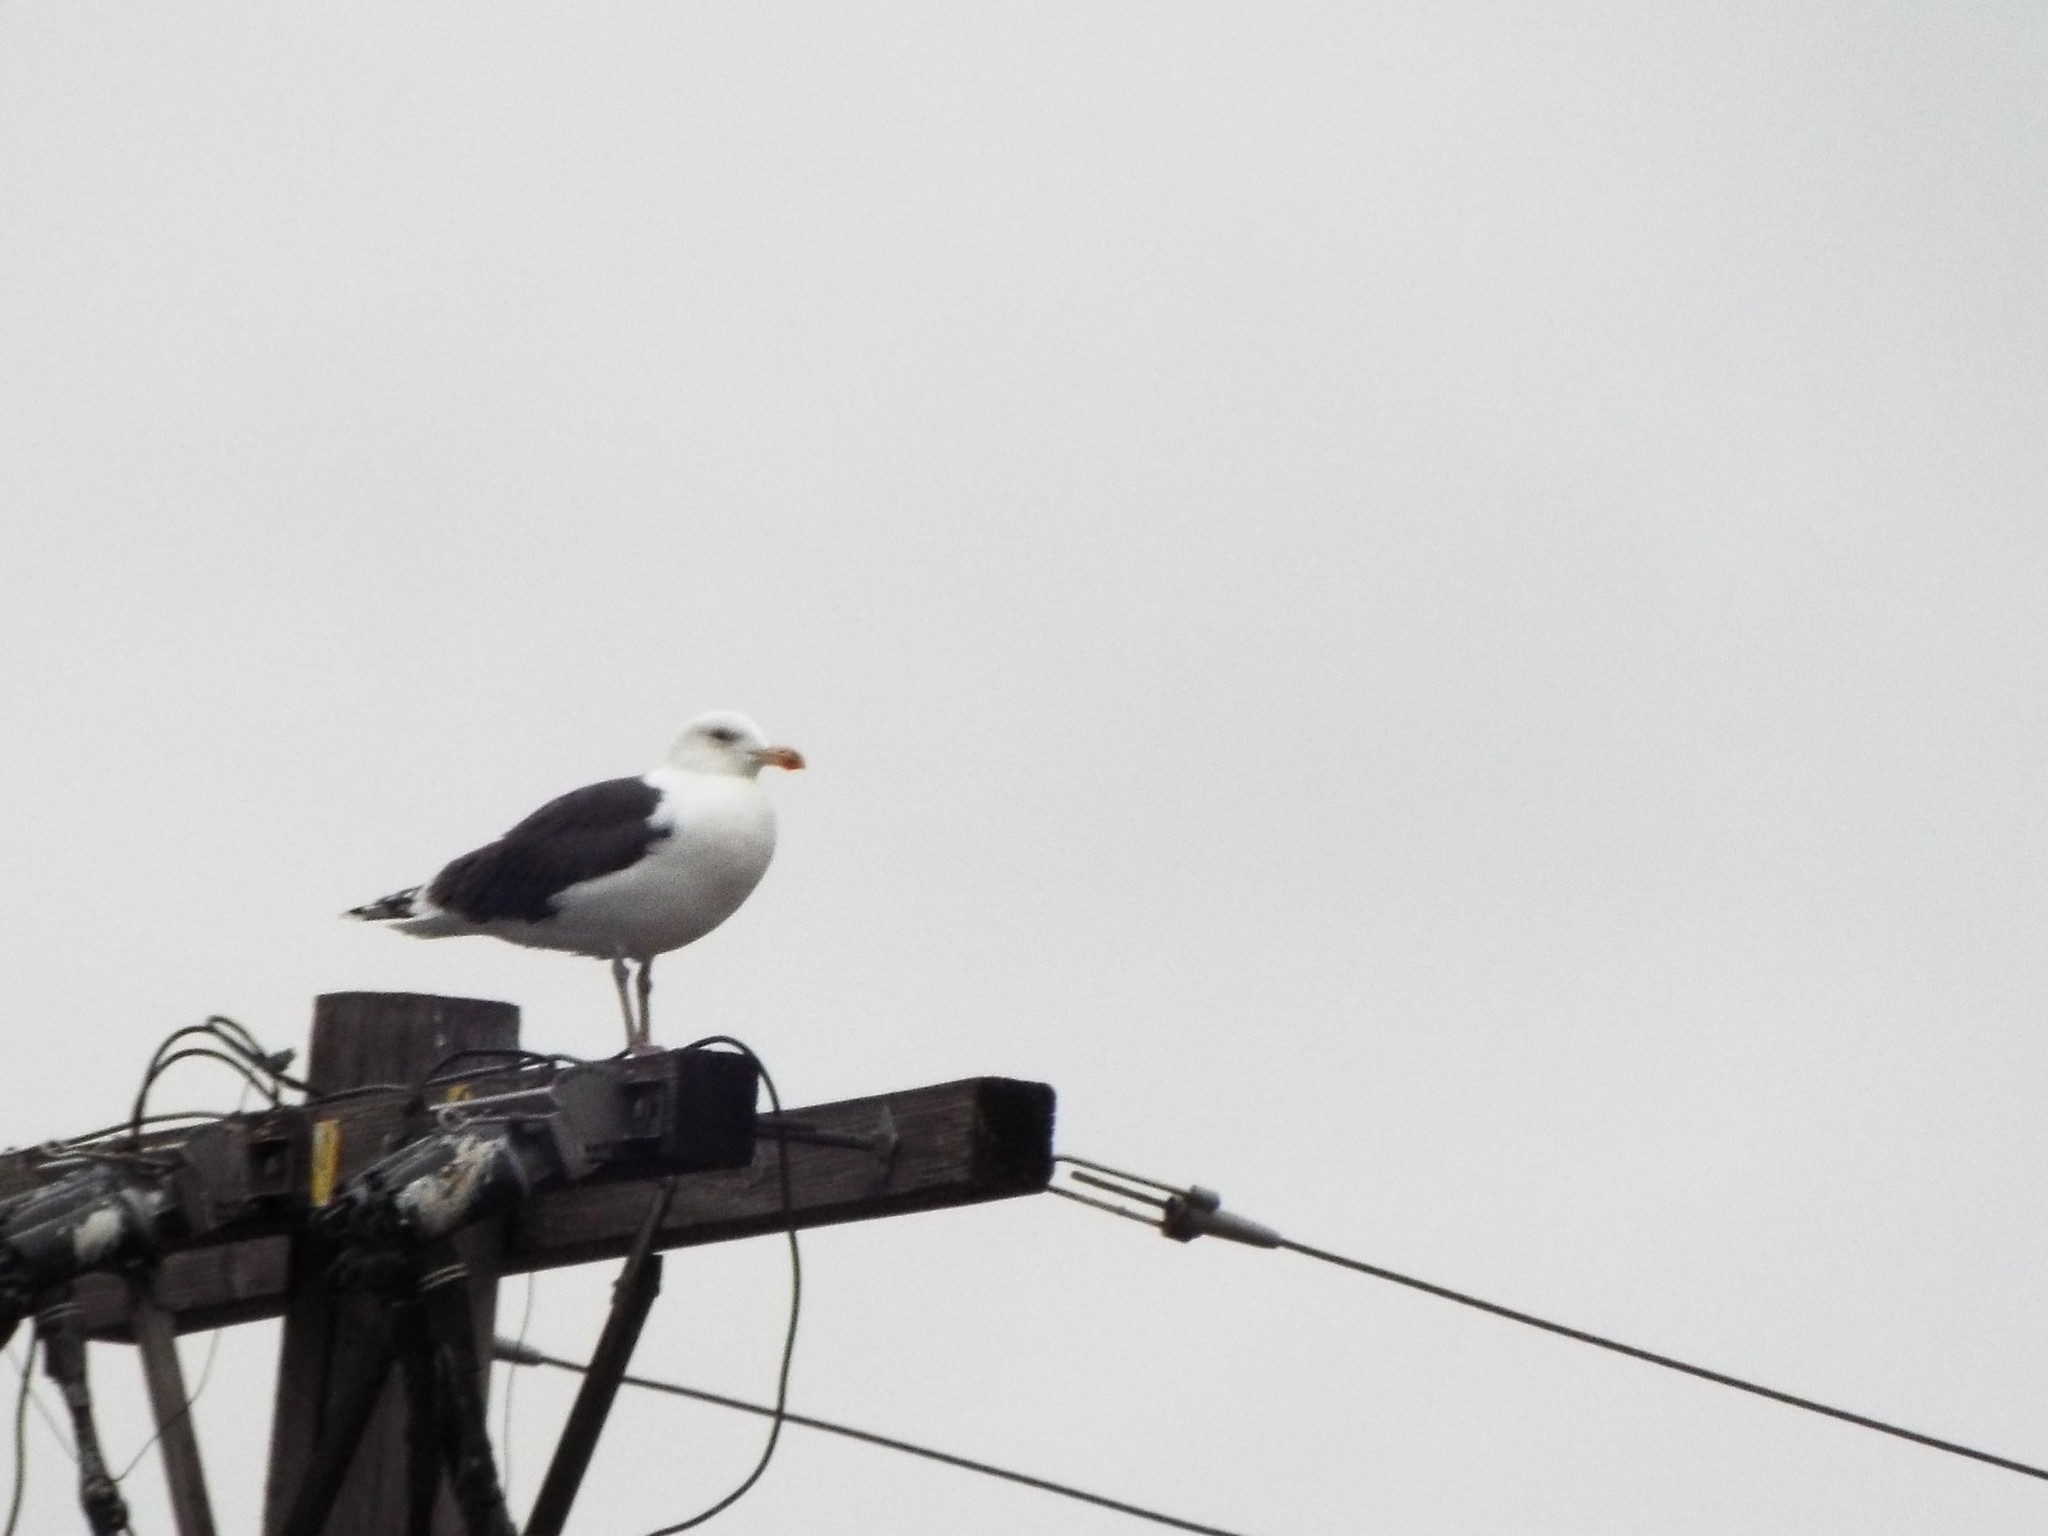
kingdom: Animalia
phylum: Chordata
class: Aves
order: Charadriiformes
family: Laridae
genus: Larus
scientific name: Larus marinus
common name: Great black-backed gull
